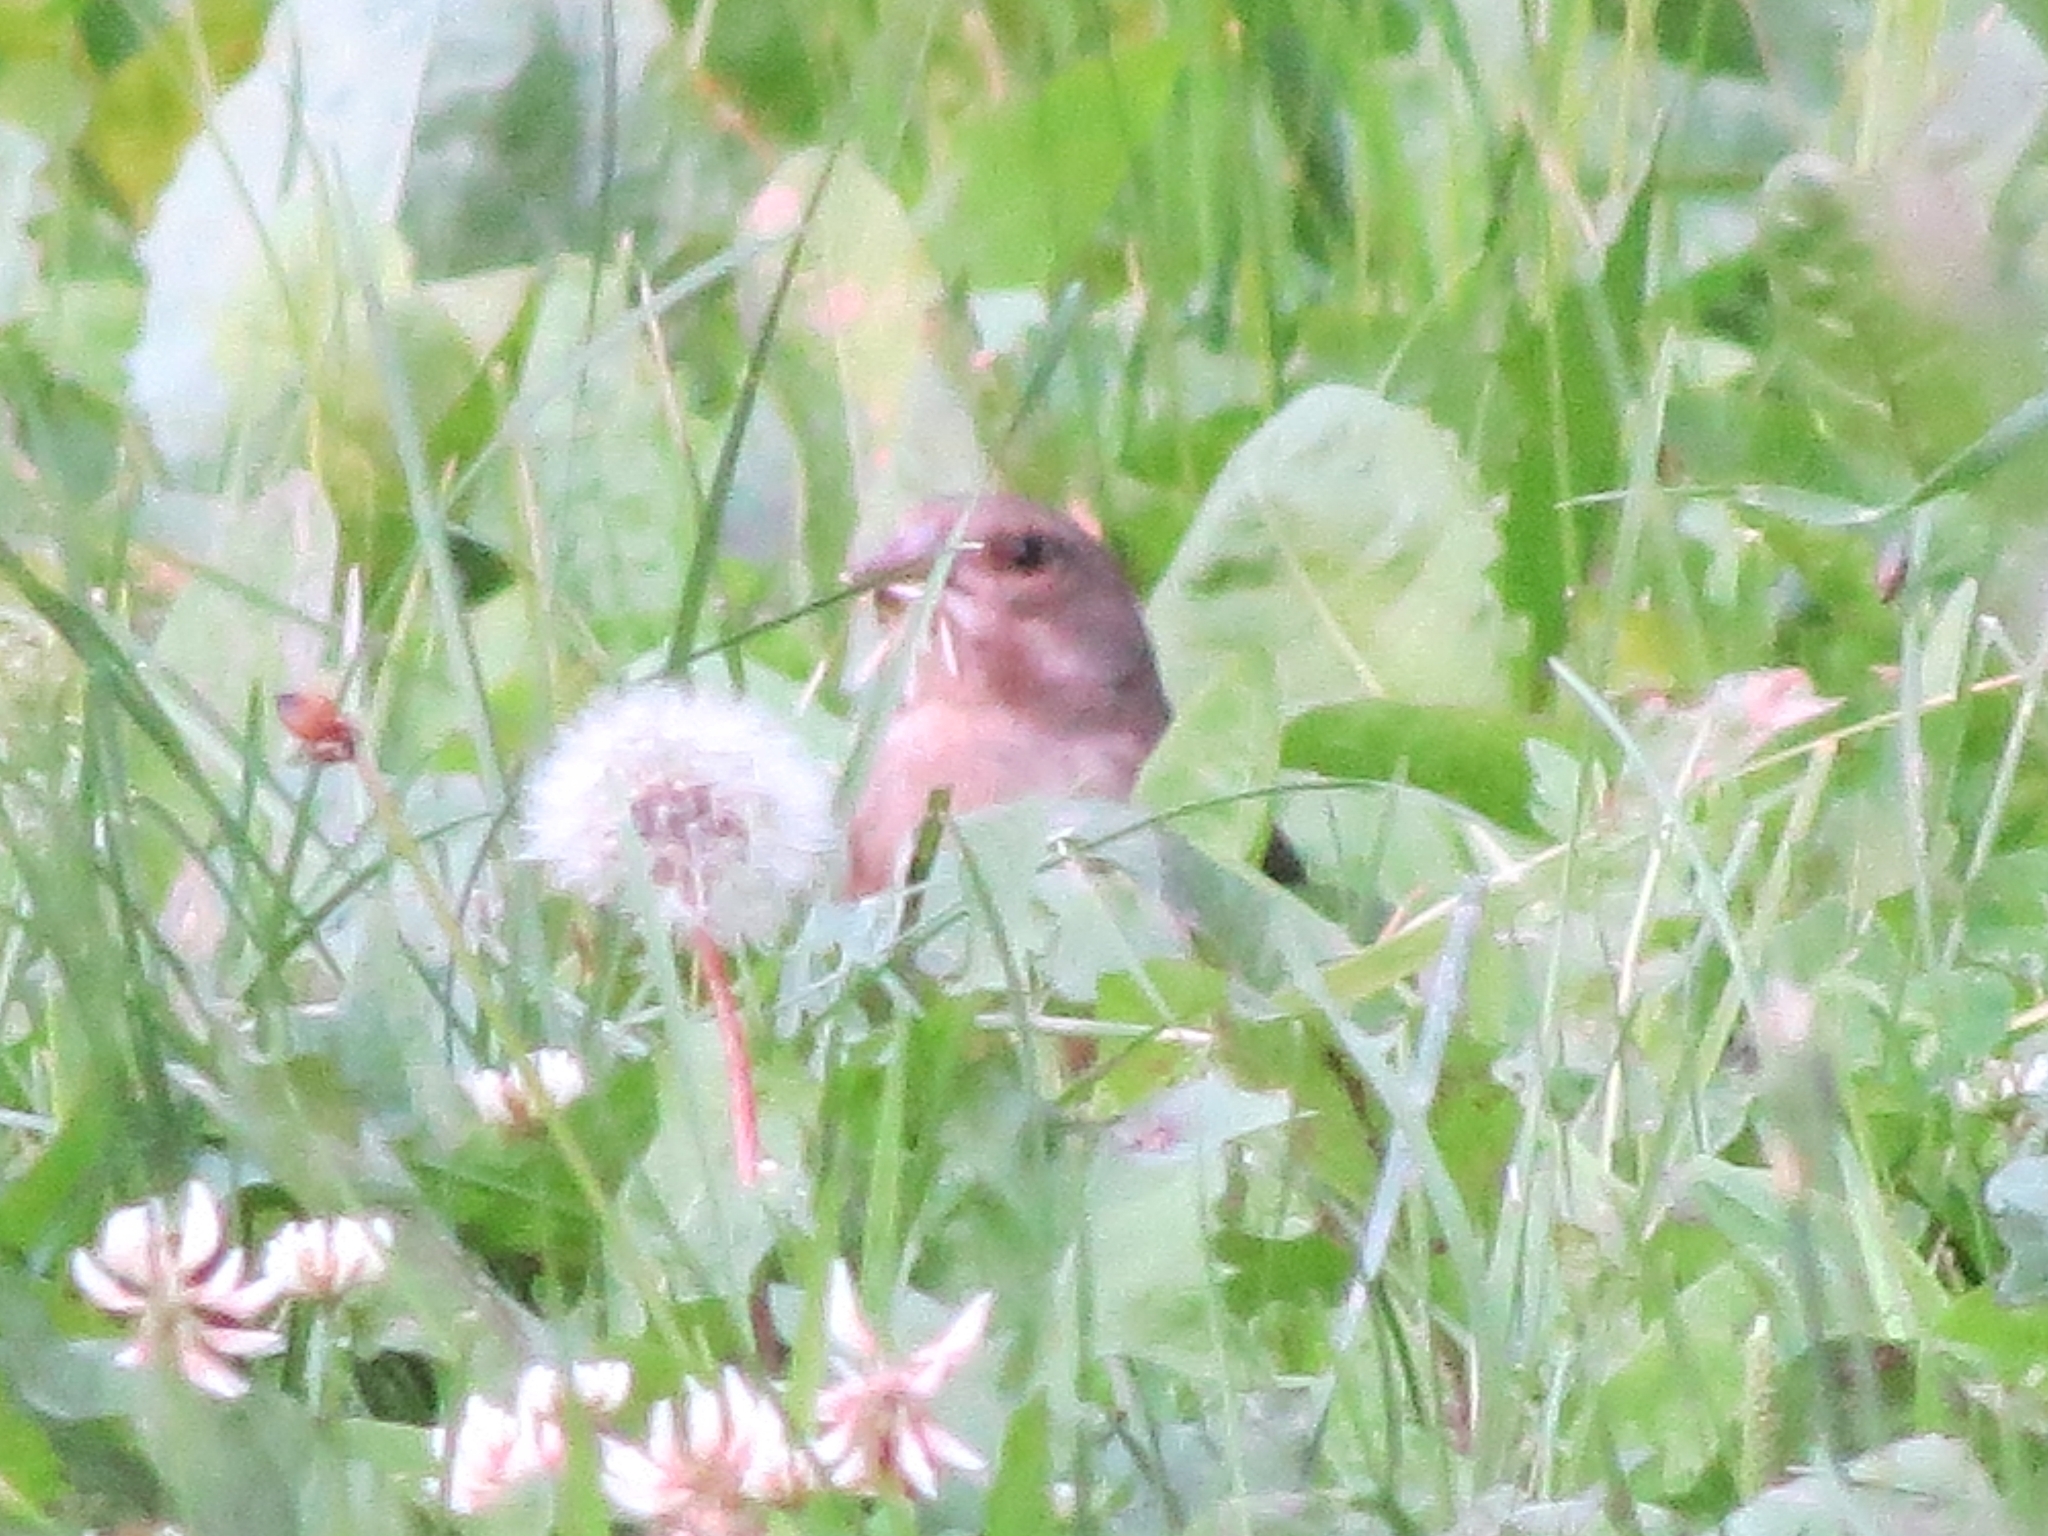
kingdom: Plantae
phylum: Tracheophyta
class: Liliopsida
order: Poales
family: Poaceae
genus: Chloris
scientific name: Chloris chloris
